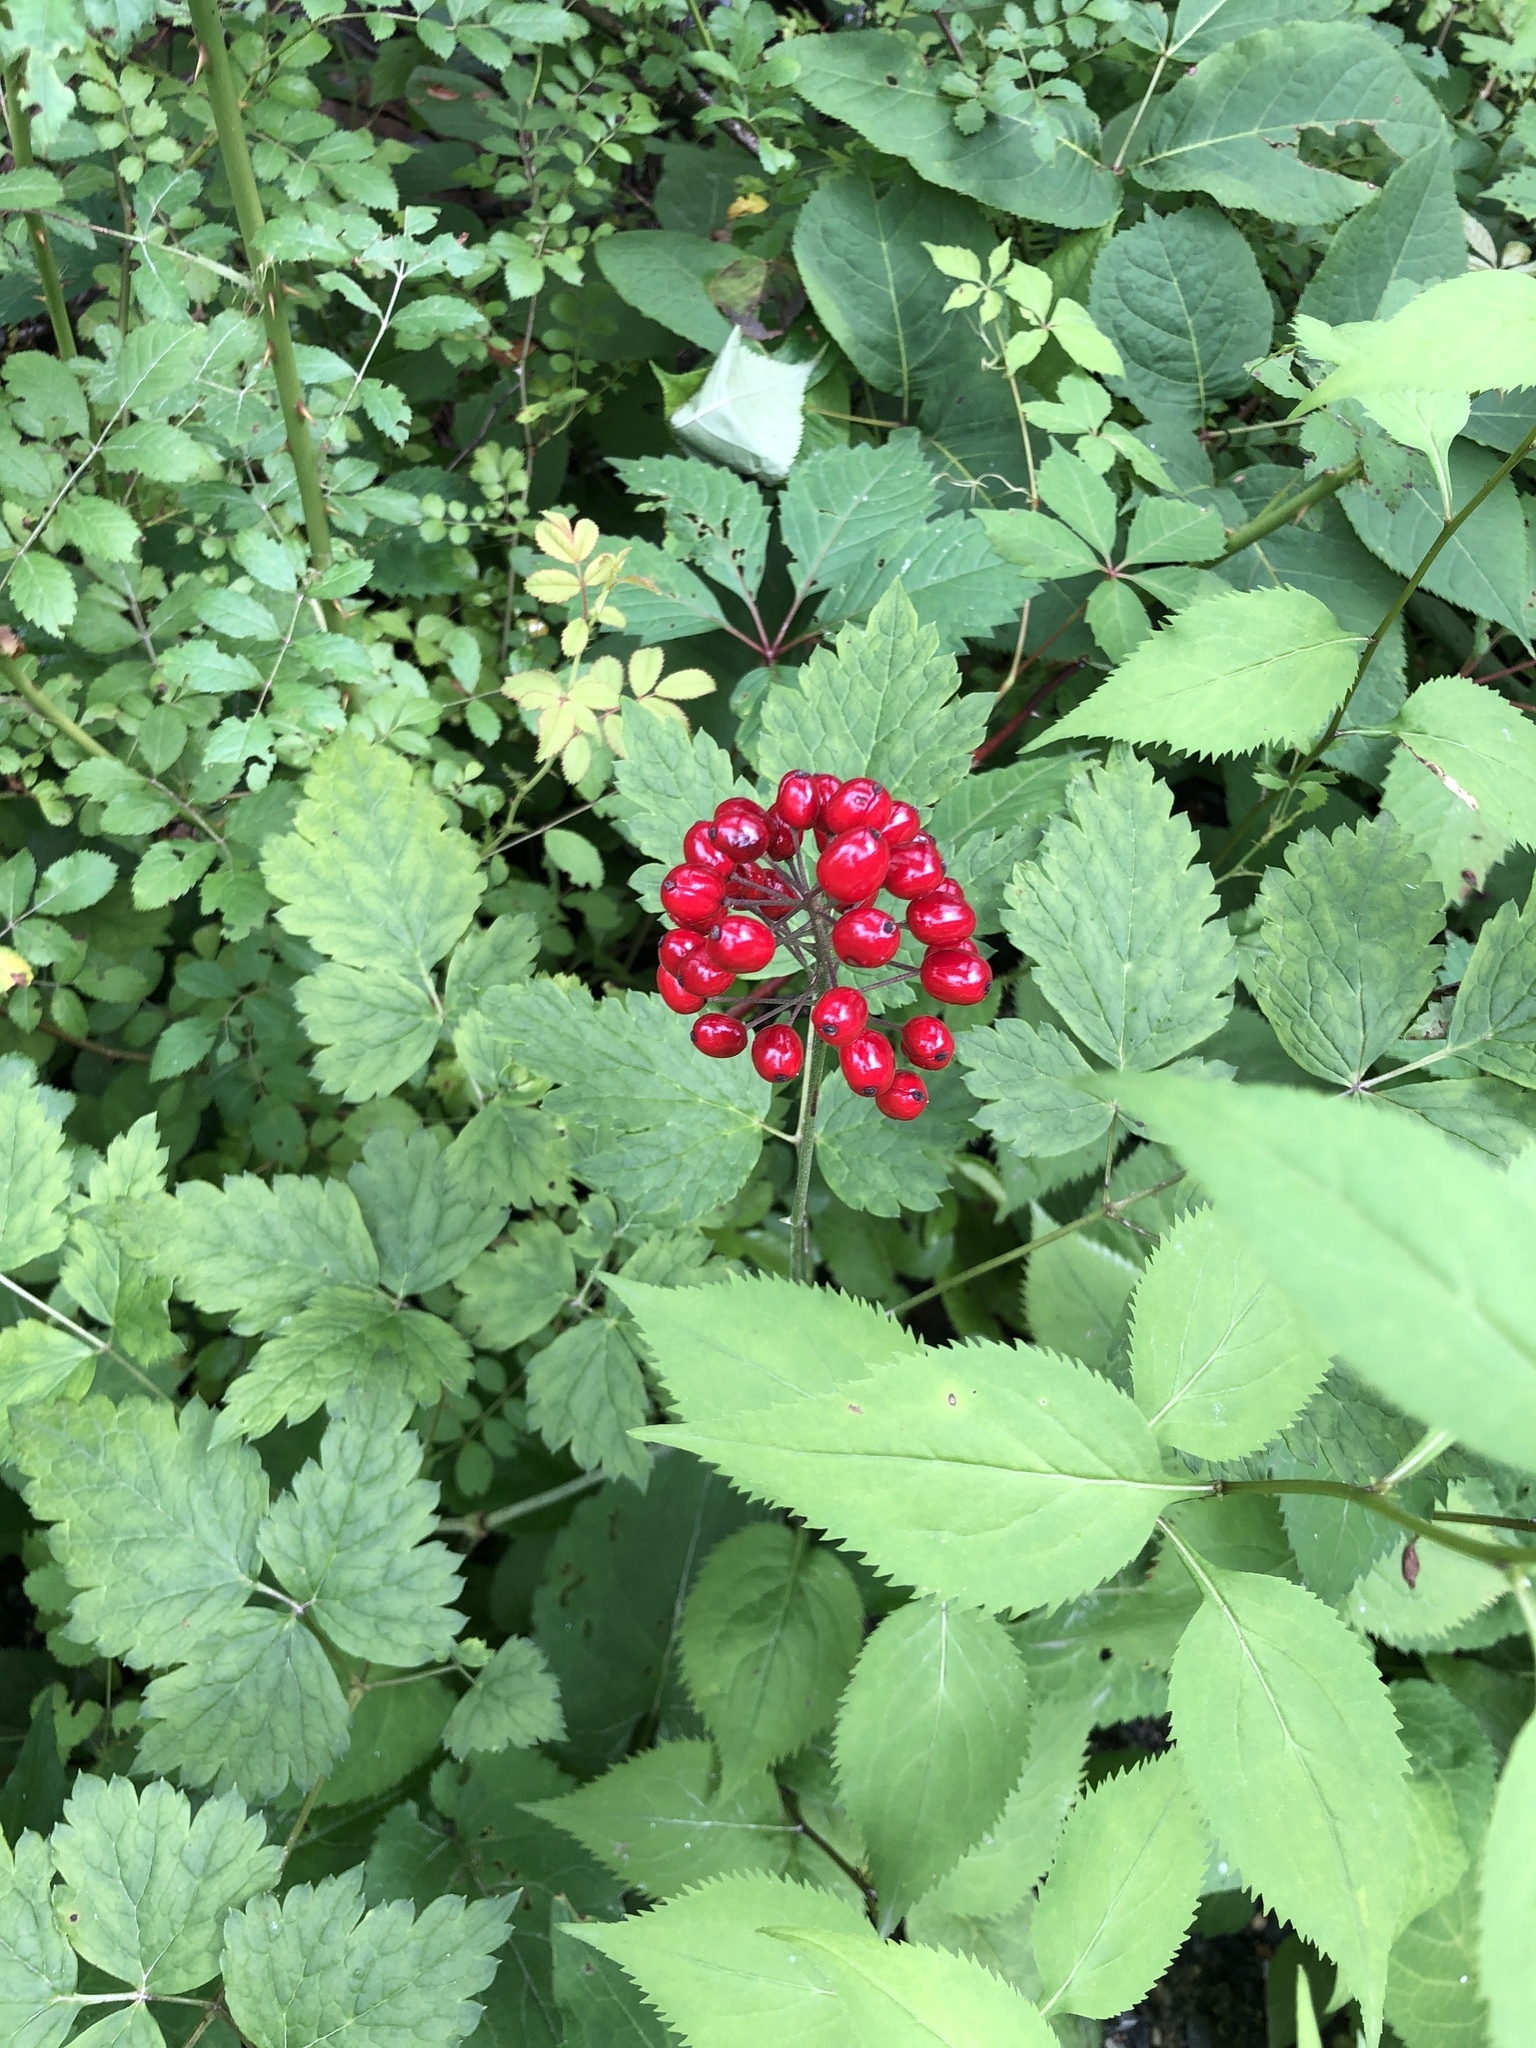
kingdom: Plantae
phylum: Tracheophyta
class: Magnoliopsida
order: Ranunculales
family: Ranunculaceae
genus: Actaea
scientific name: Actaea rubra
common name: Red baneberry
